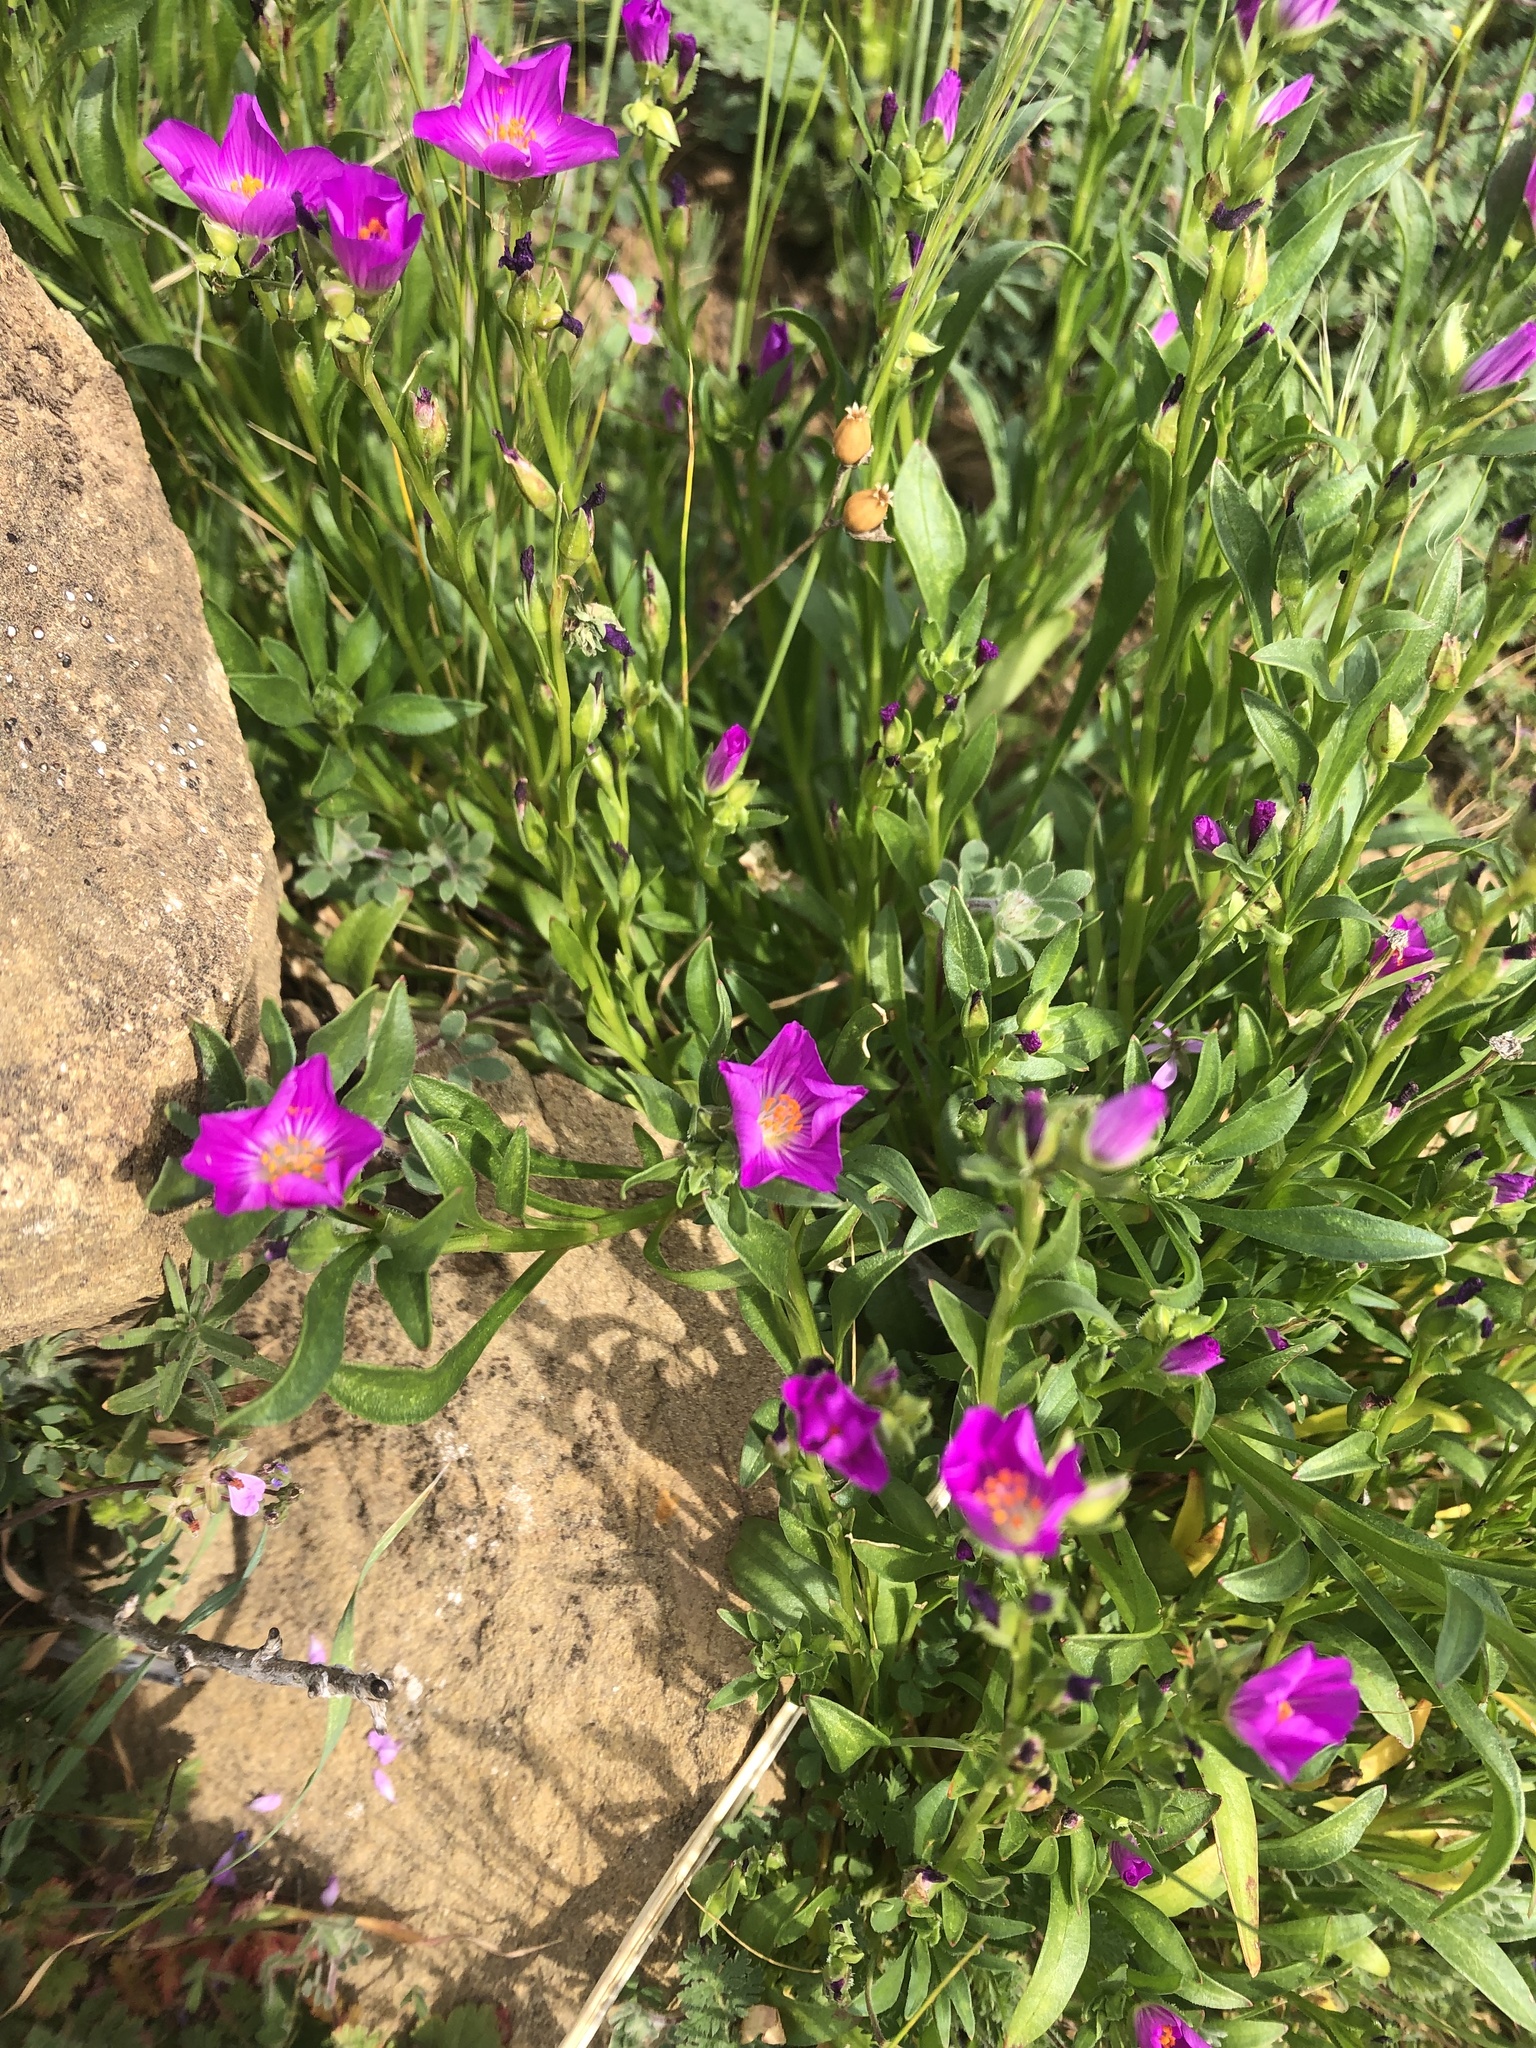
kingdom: Plantae
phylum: Tracheophyta
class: Magnoliopsida
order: Caryophyllales
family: Montiaceae
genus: Calandrinia
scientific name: Calandrinia menziesii
